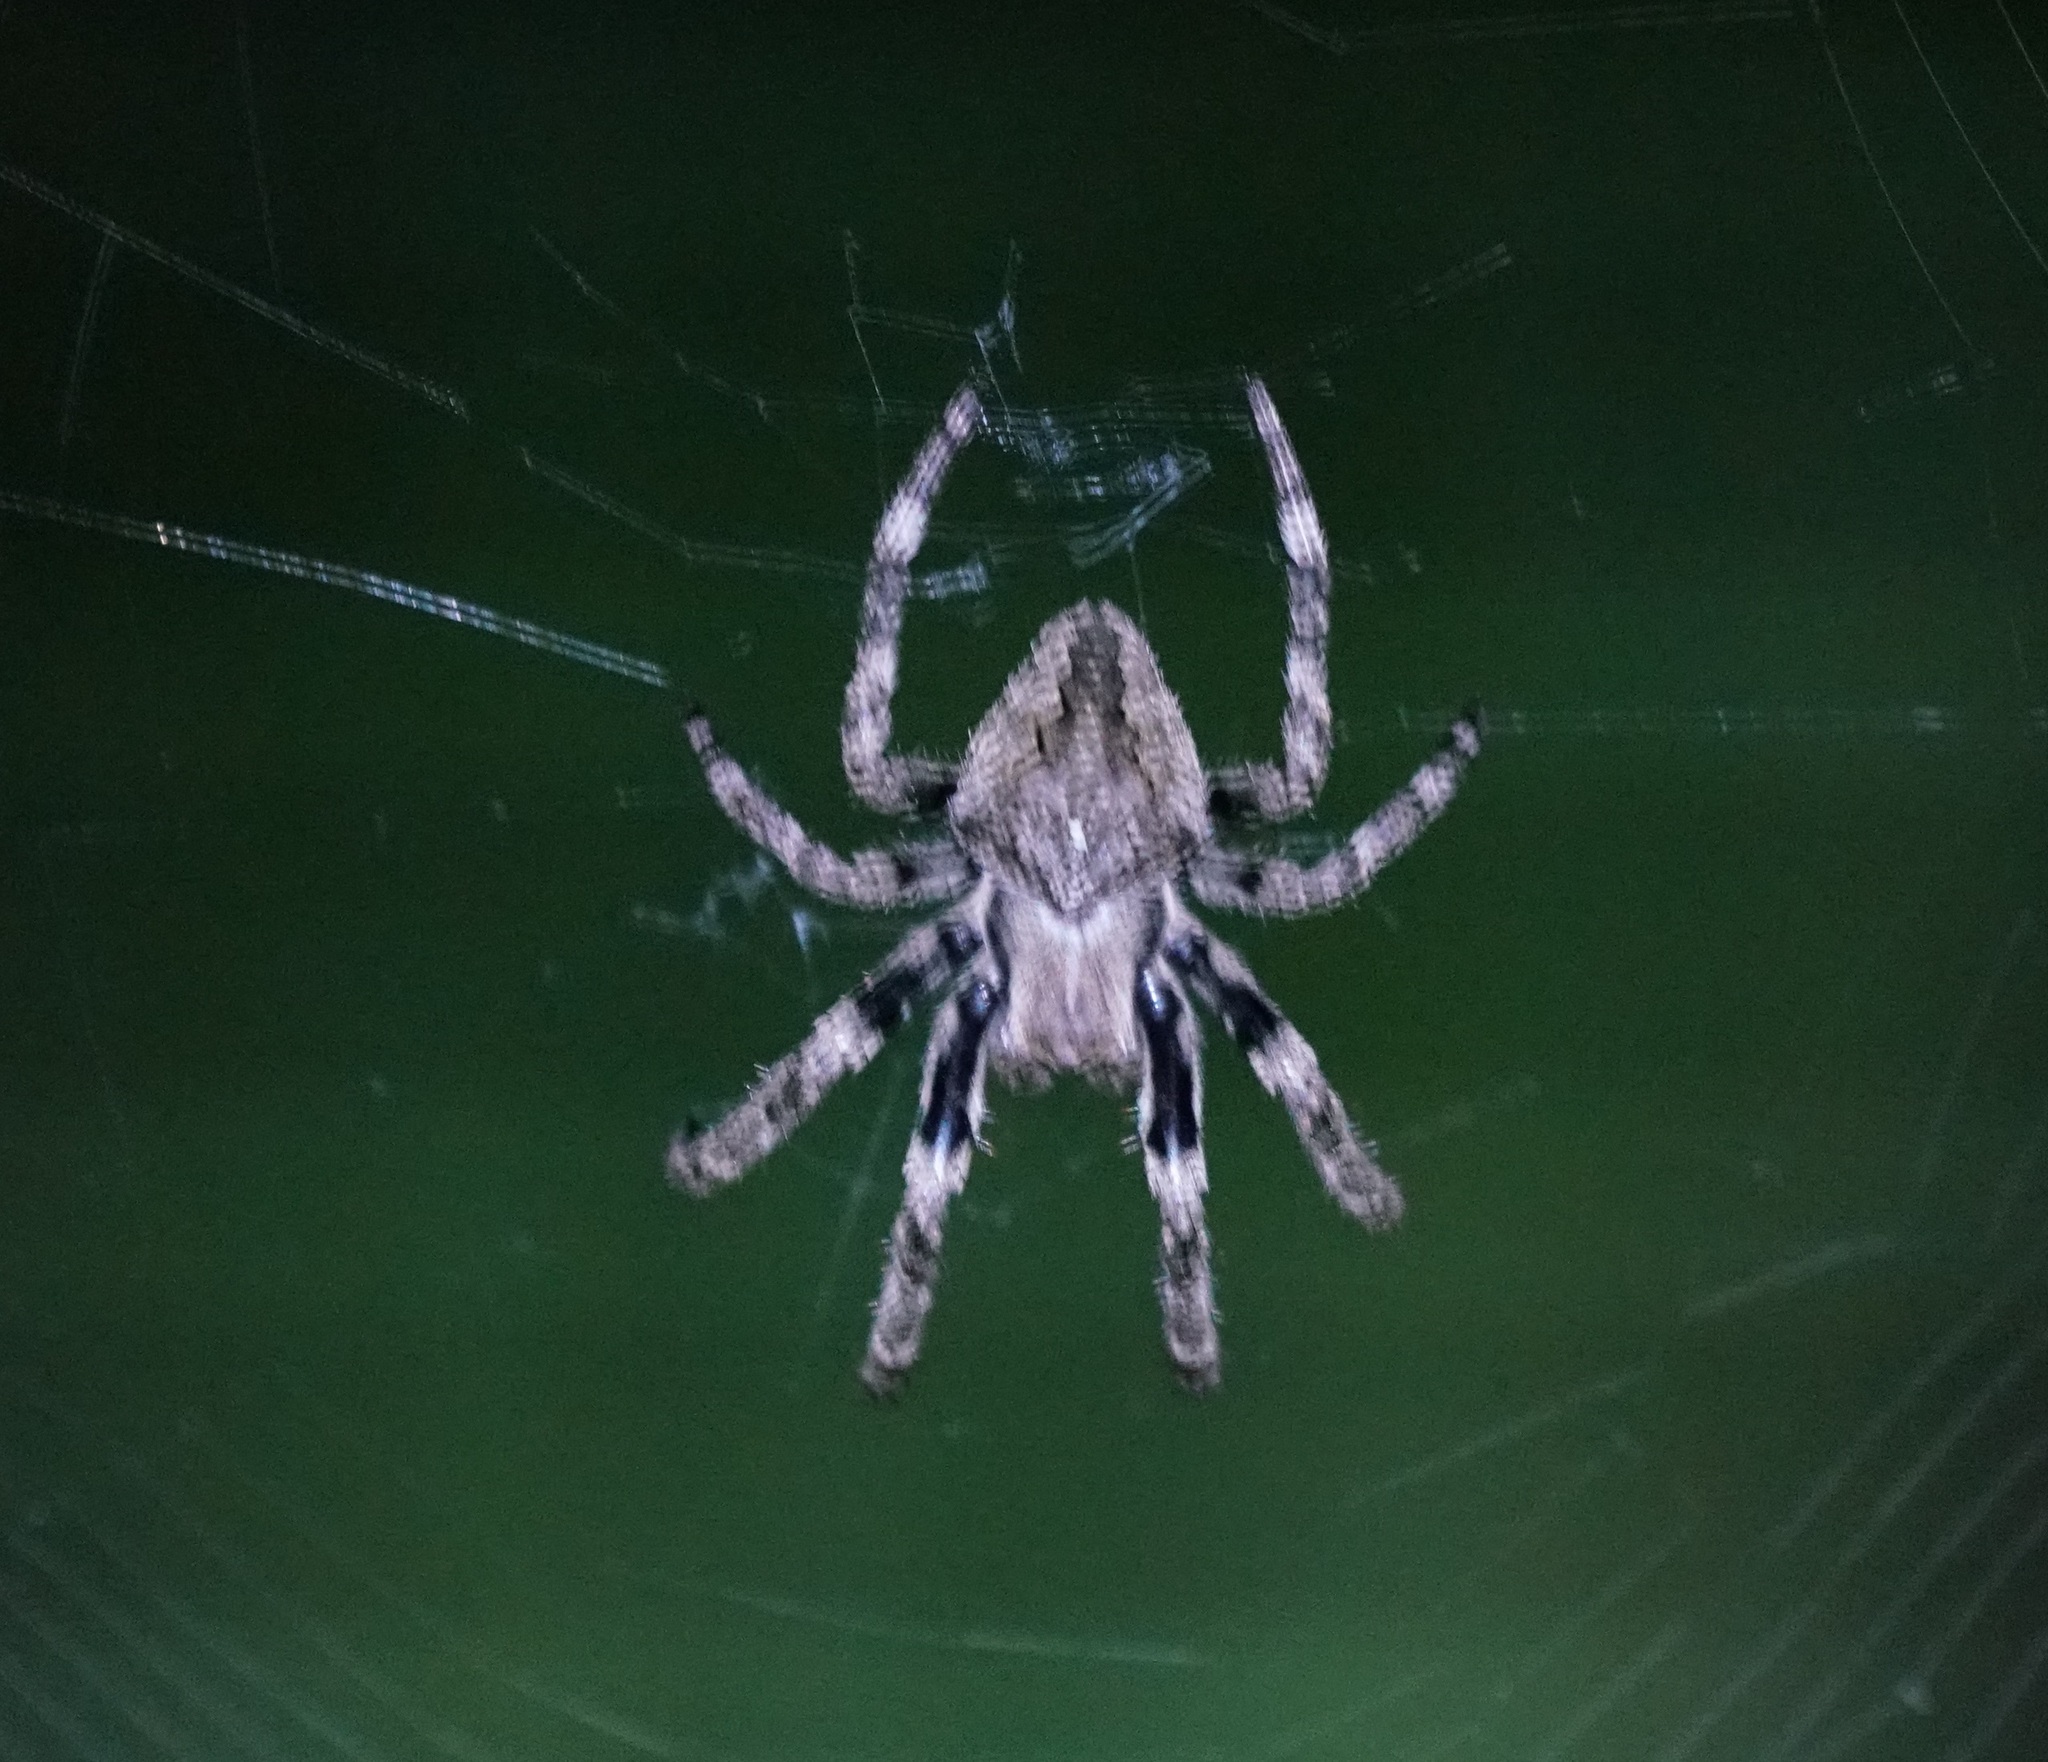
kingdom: Animalia
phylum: Arthropoda
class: Arachnida
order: Araneae
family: Araneidae
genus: Araneus
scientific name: Araneus ventricosus
